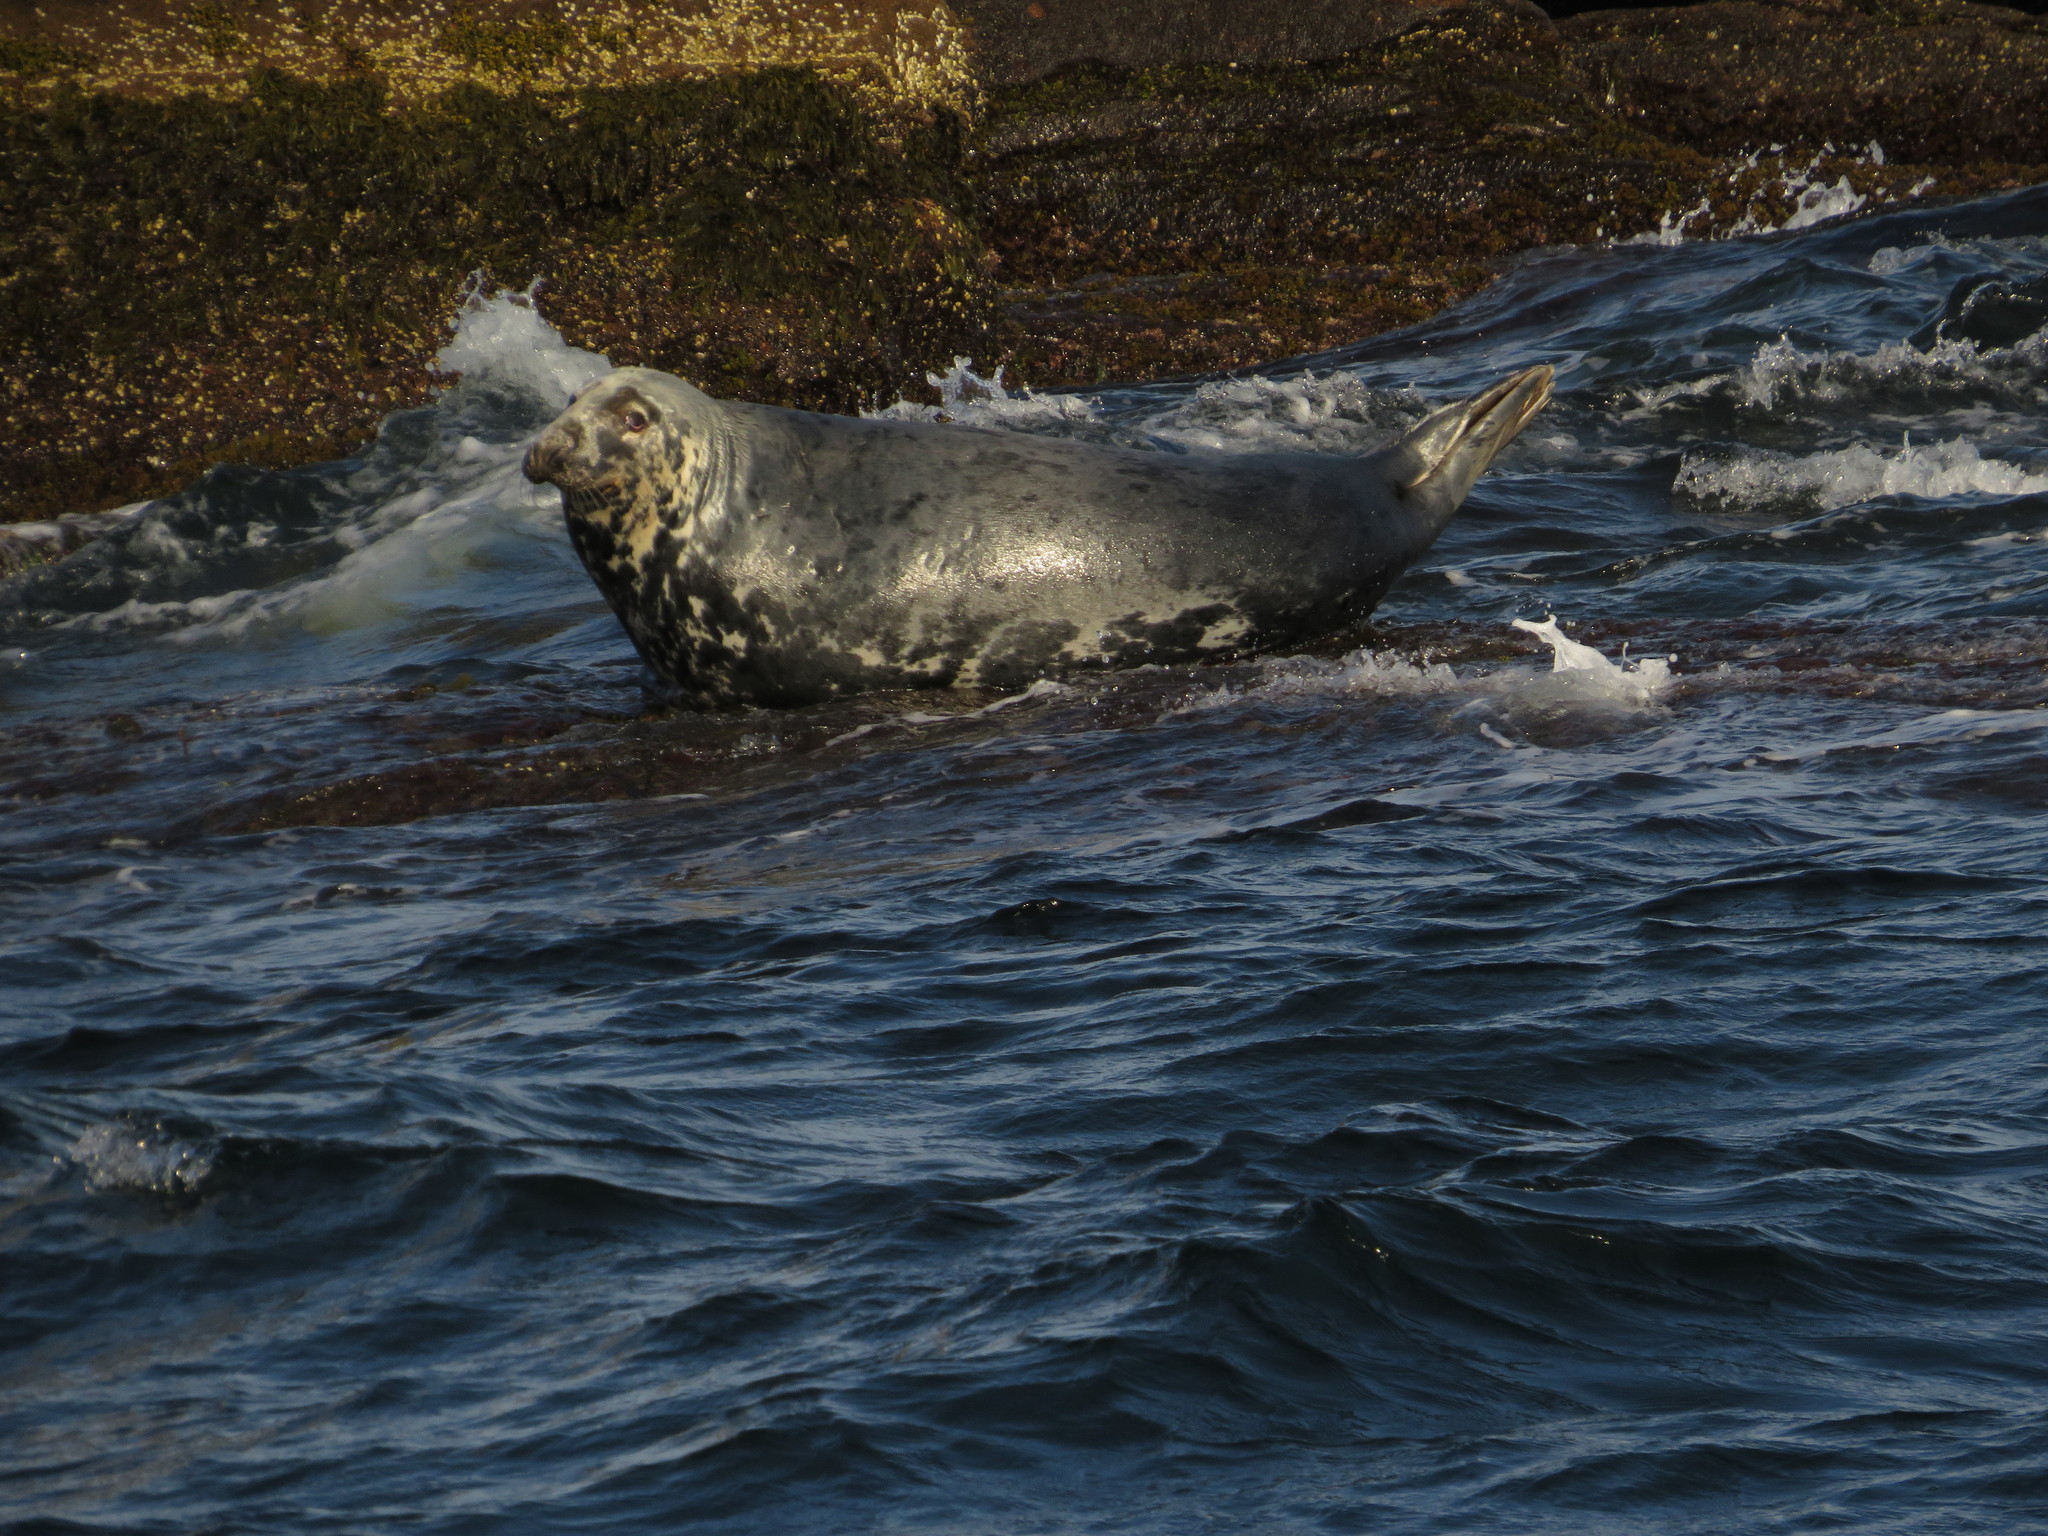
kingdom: Animalia
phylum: Chordata
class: Mammalia
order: Carnivora
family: Phocidae
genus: Halichoerus
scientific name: Halichoerus grypus
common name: Grey seal
